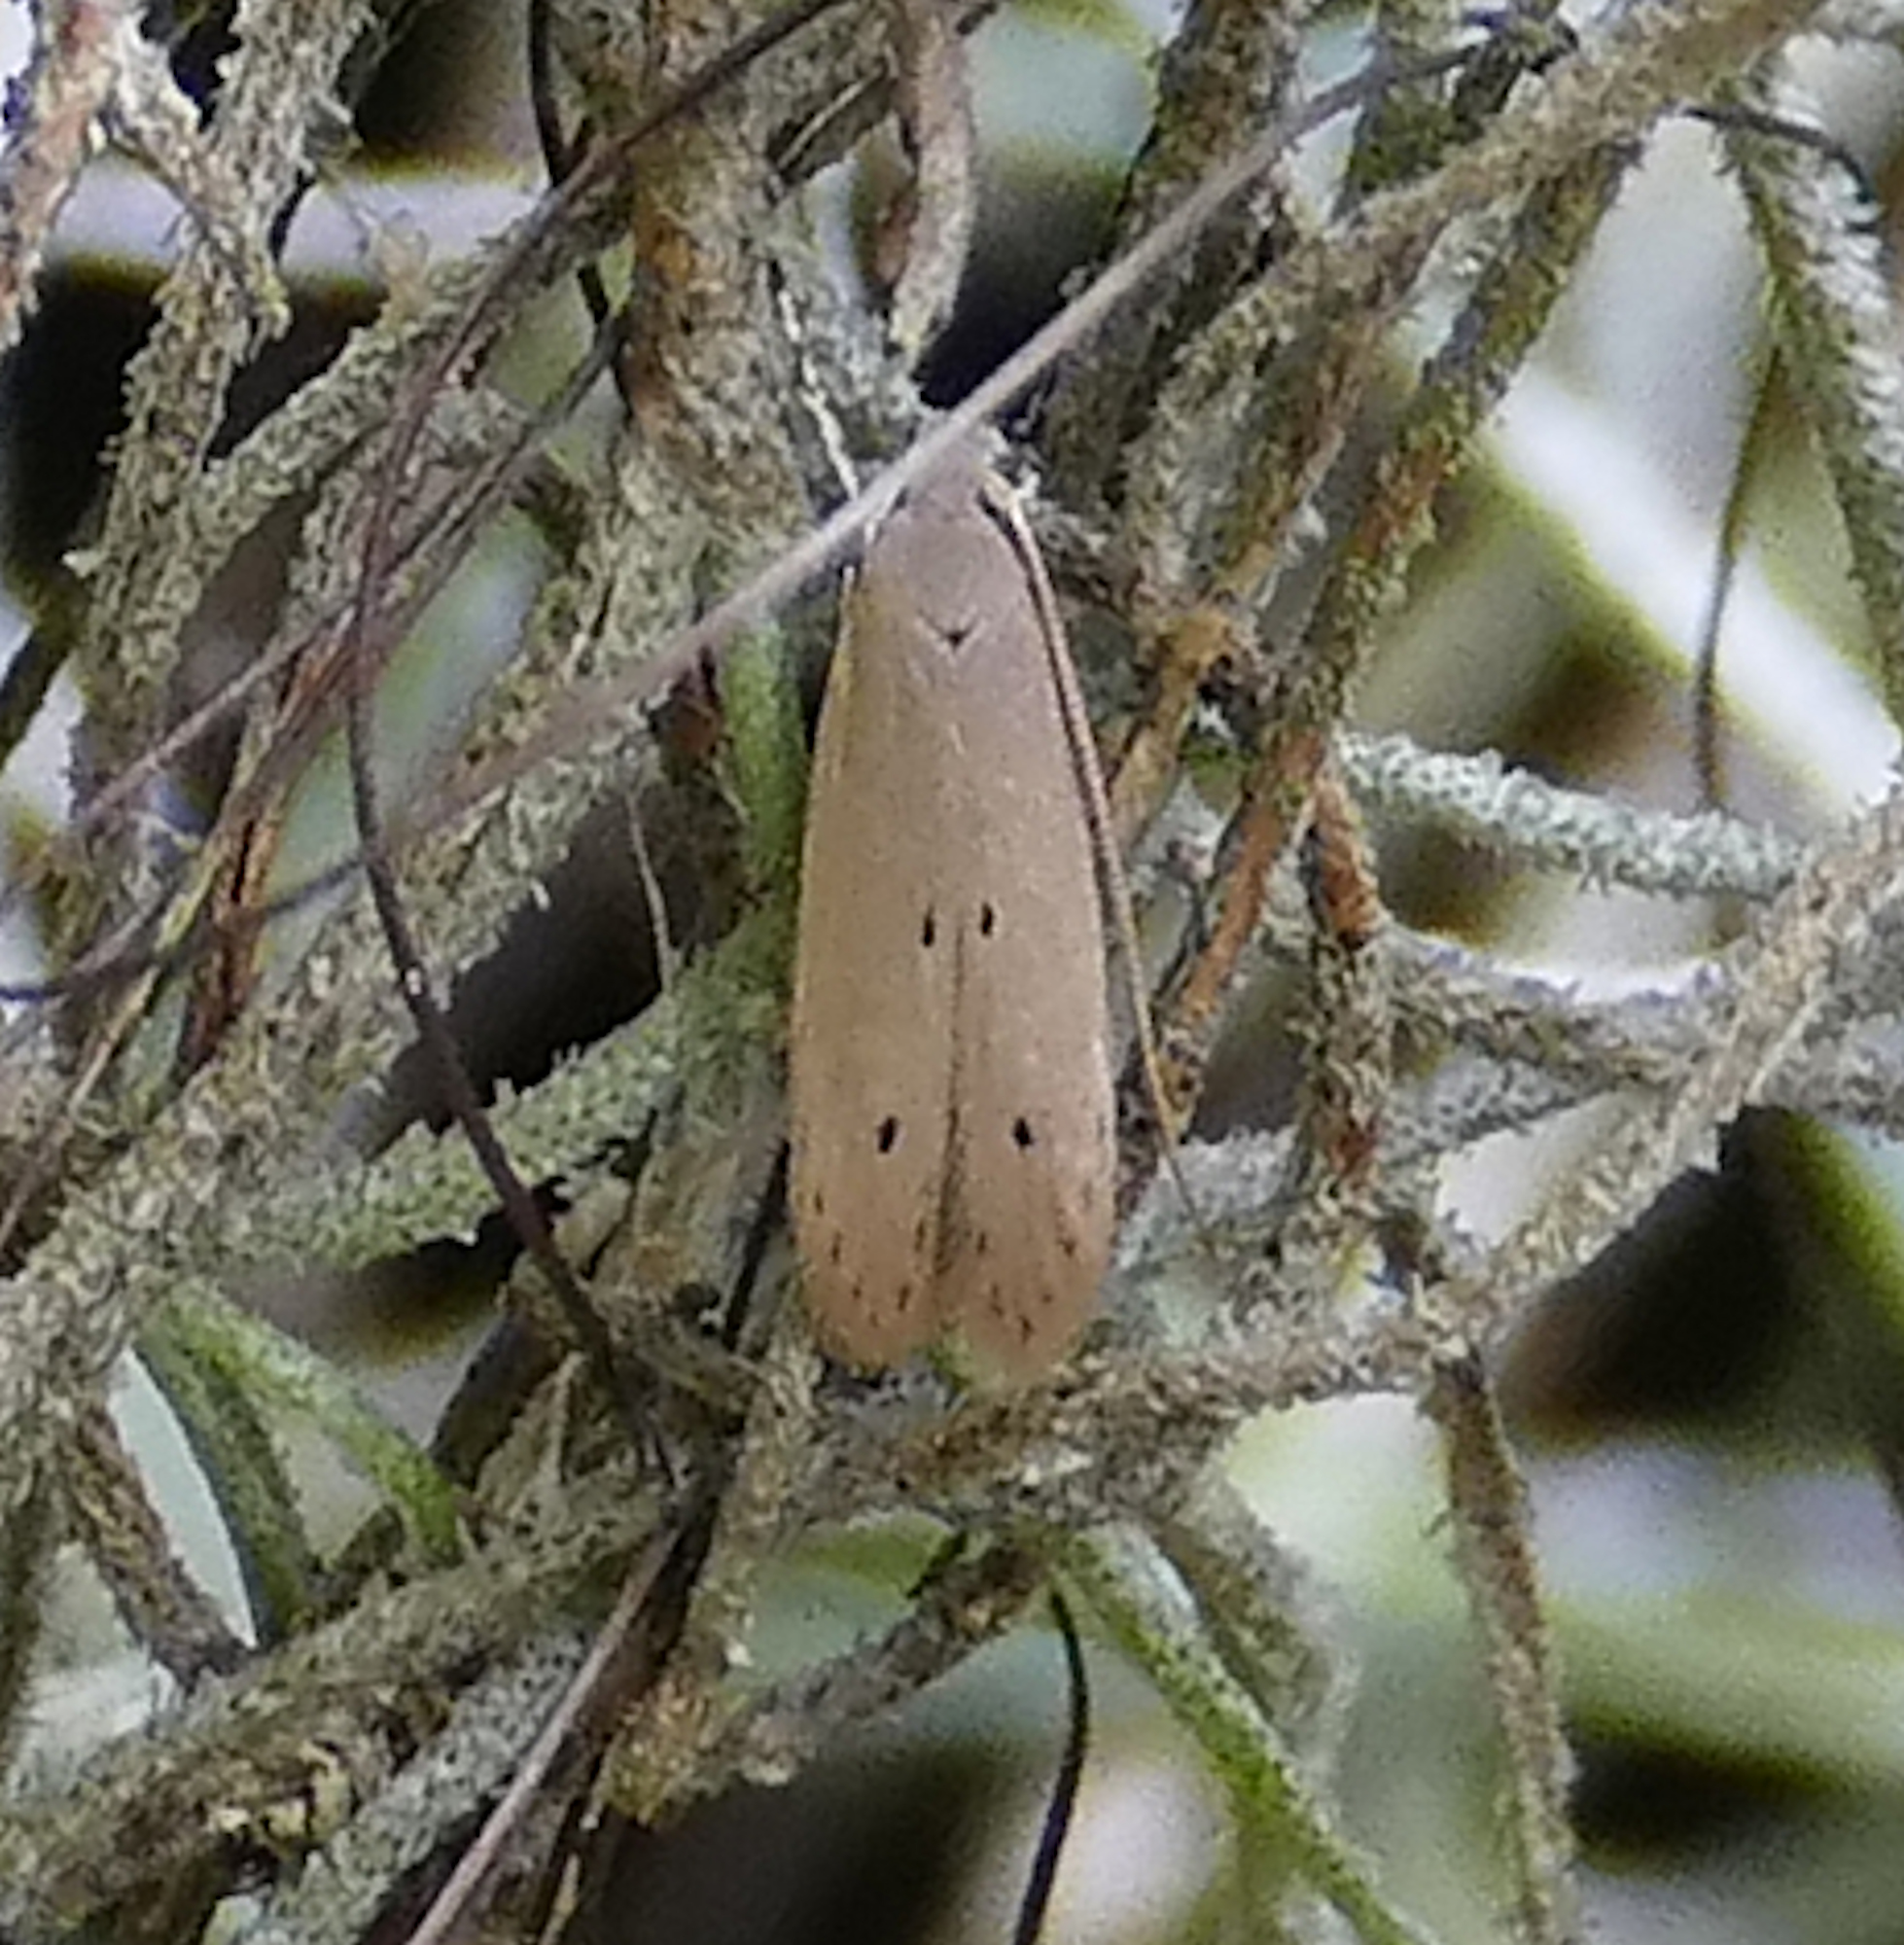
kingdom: Animalia
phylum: Arthropoda
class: Insecta
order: Lepidoptera
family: Coleophoridae
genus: Homaledra
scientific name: Homaledra sabalella
